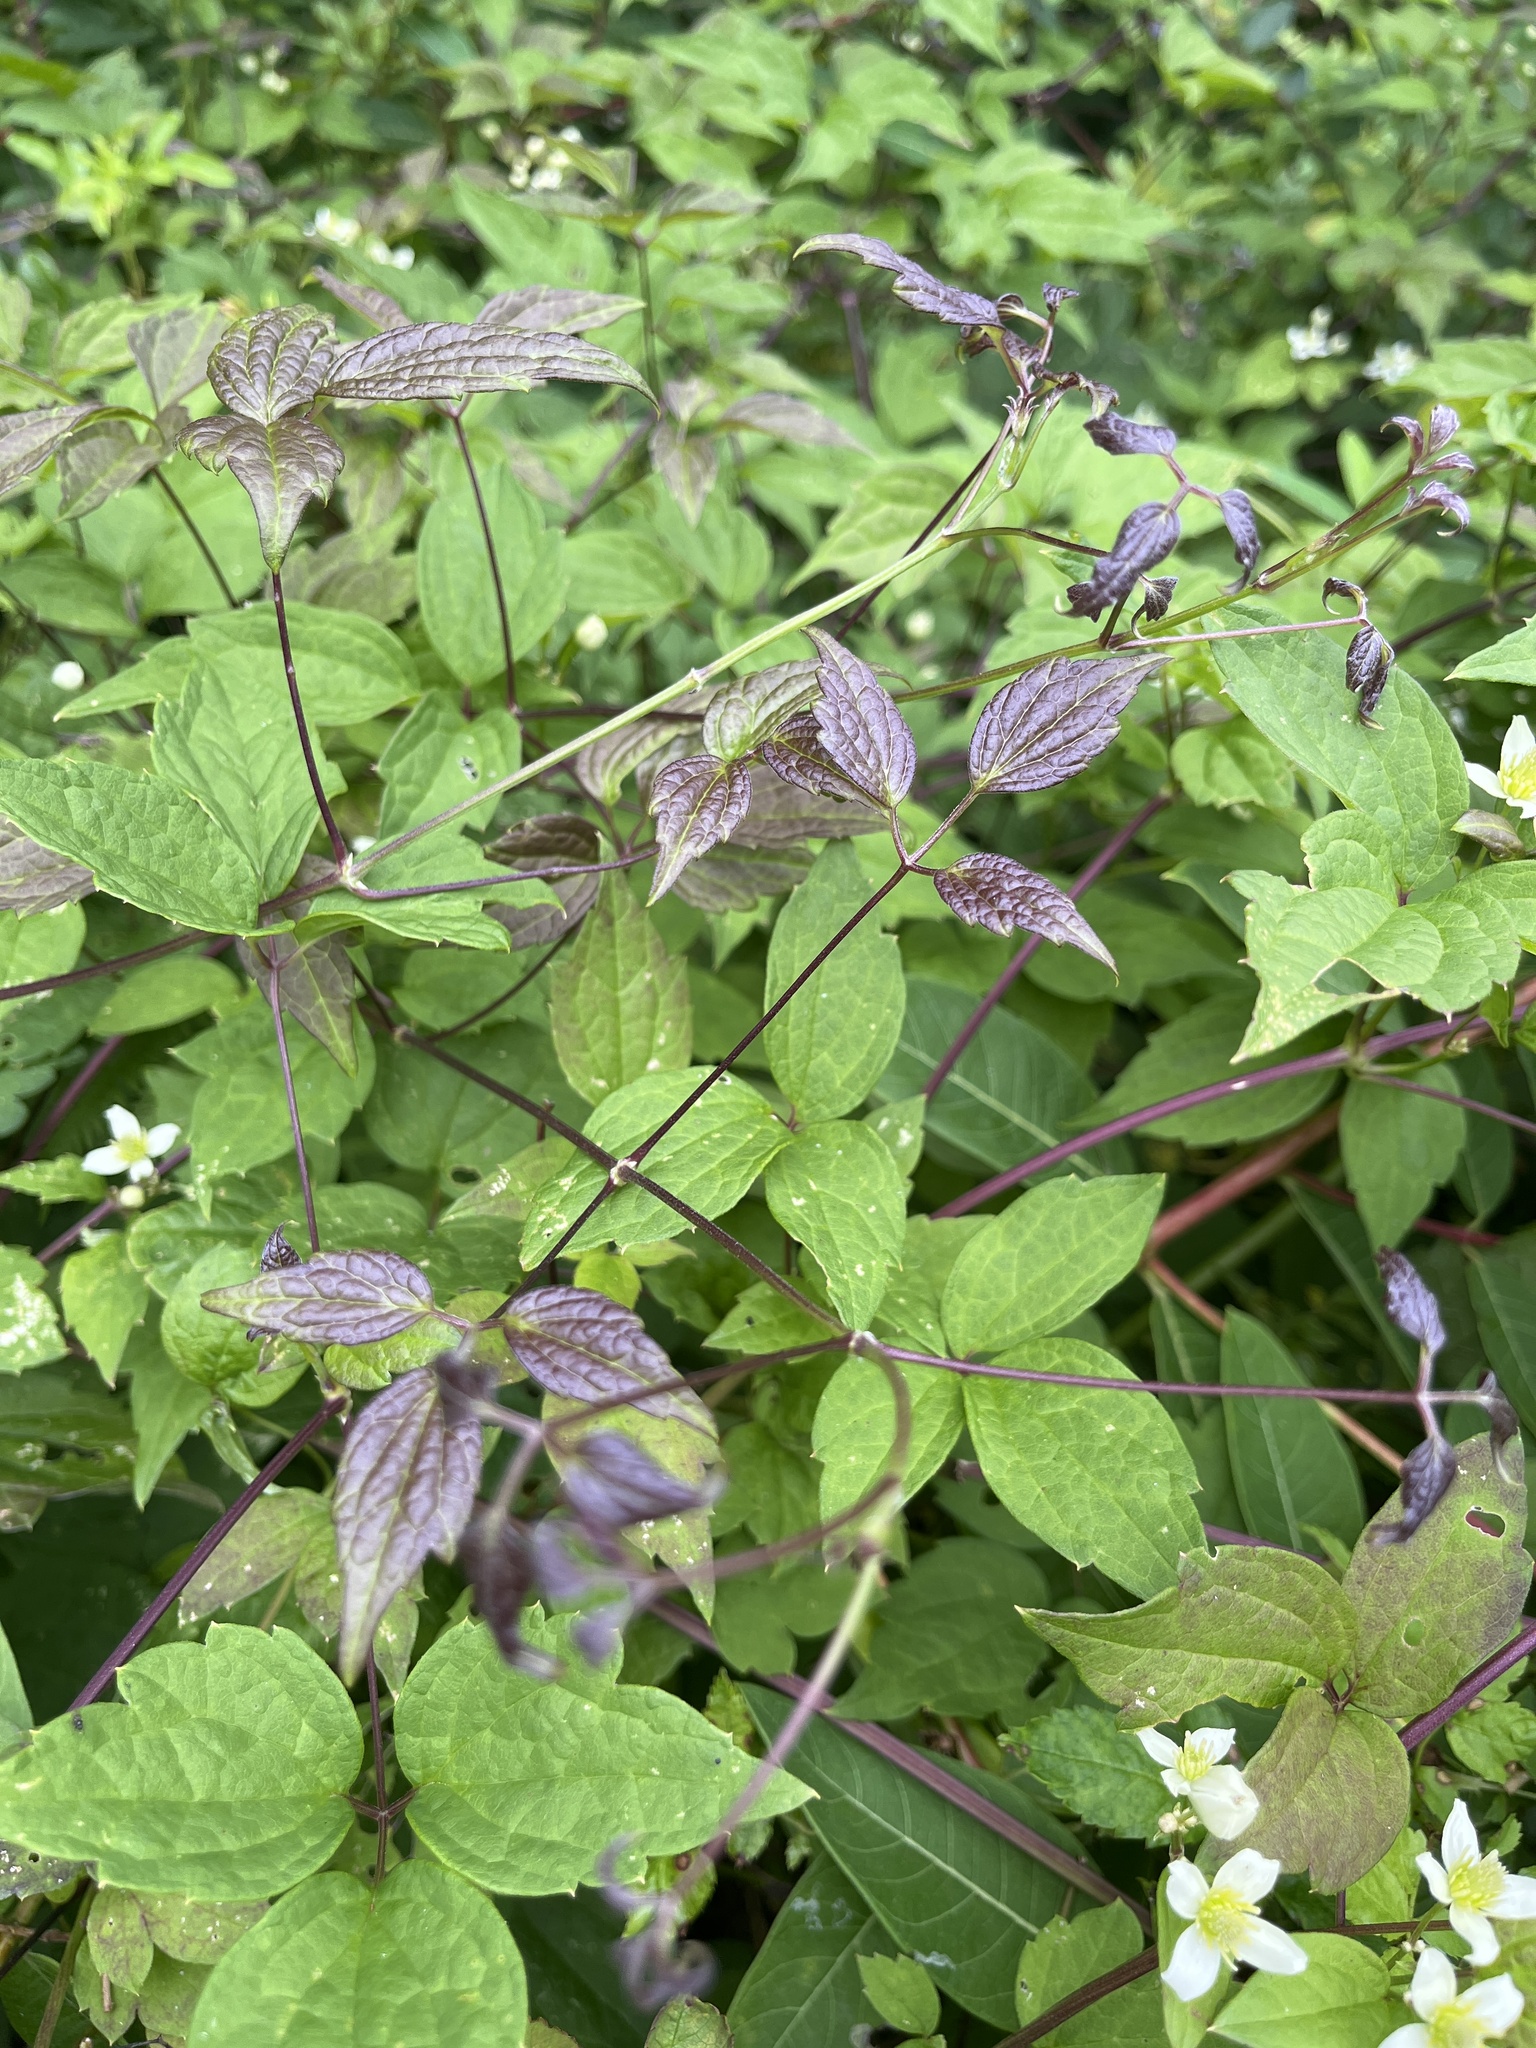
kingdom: Plantae
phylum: Tracheophyta
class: Magnoliopsida
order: Ranunculales
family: Ranunculaceae
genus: Clematis
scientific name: Clematis virginiana
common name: Virgin's-bower
